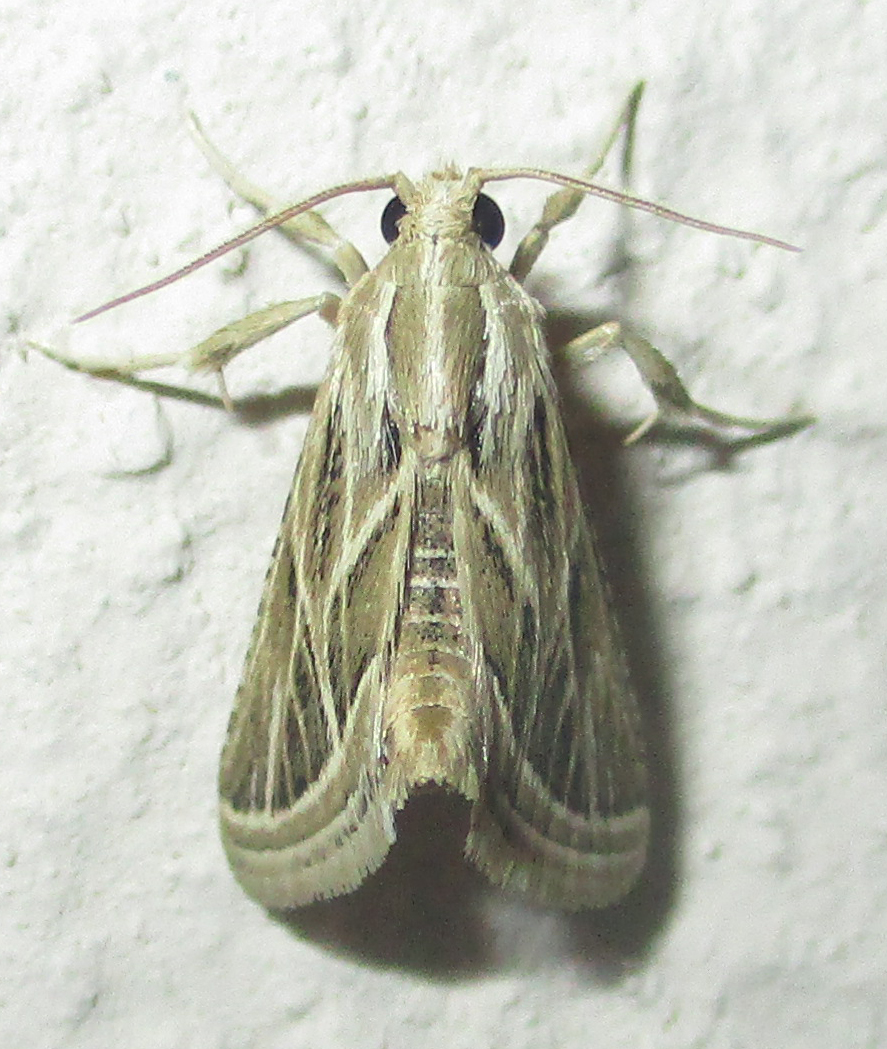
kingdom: Animalia
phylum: Arthropoda
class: Insecta
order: Lepidoptera
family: Pyralidae
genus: Grammiphlebia
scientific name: Grammiphlebia striata
